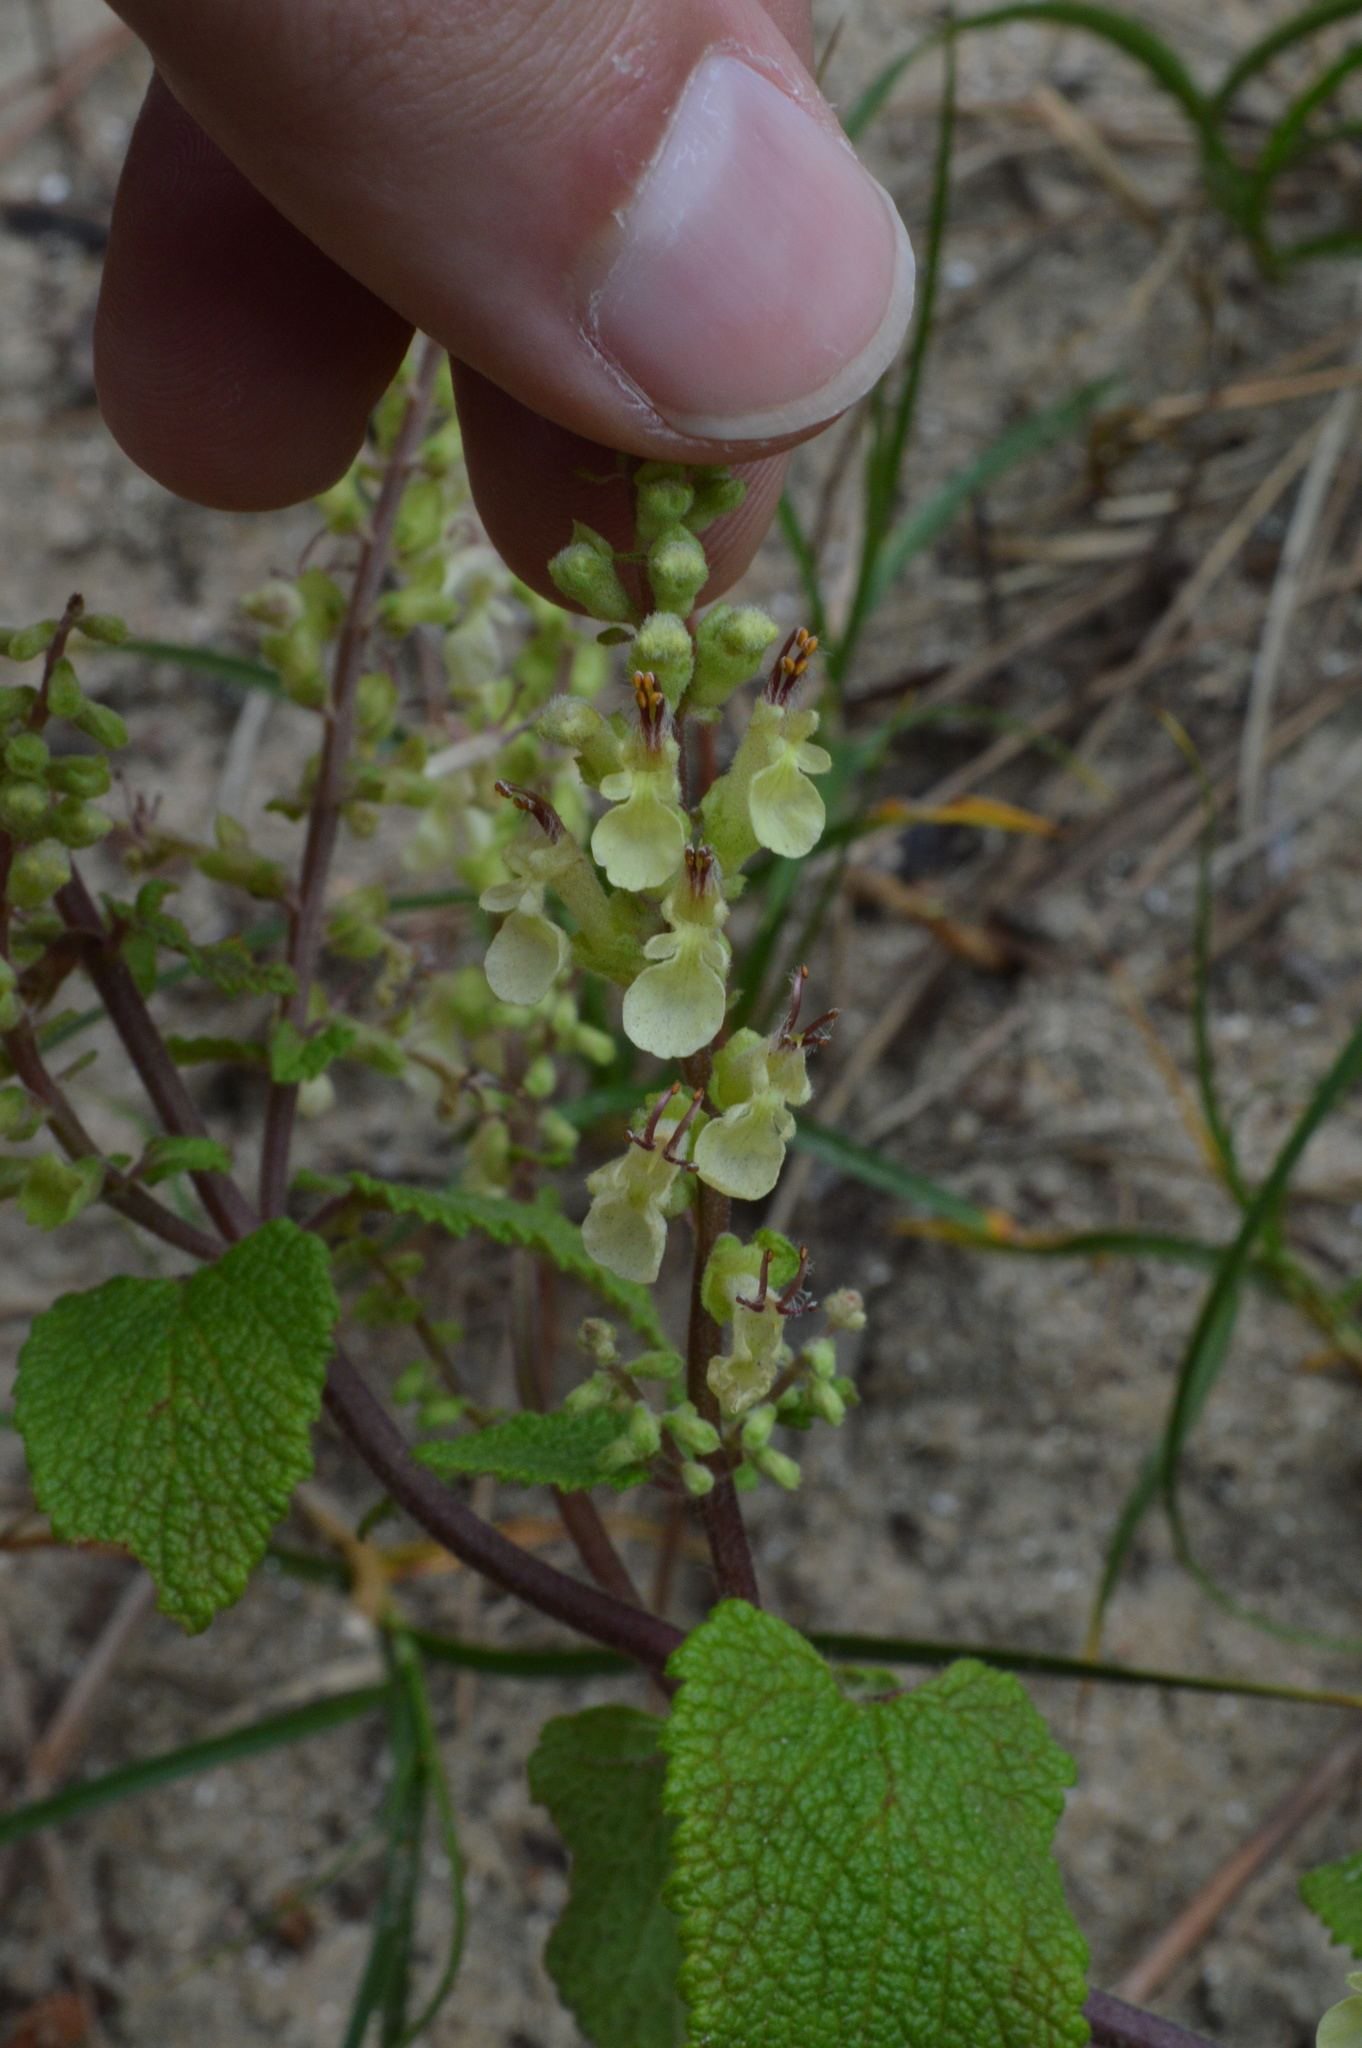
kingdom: Plantae
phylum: Tracheophyta
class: Magnoliopsida
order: Lamiales
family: Lamiaceae
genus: Teucrium
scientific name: Teucrium scorodonia
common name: Woodland germander
